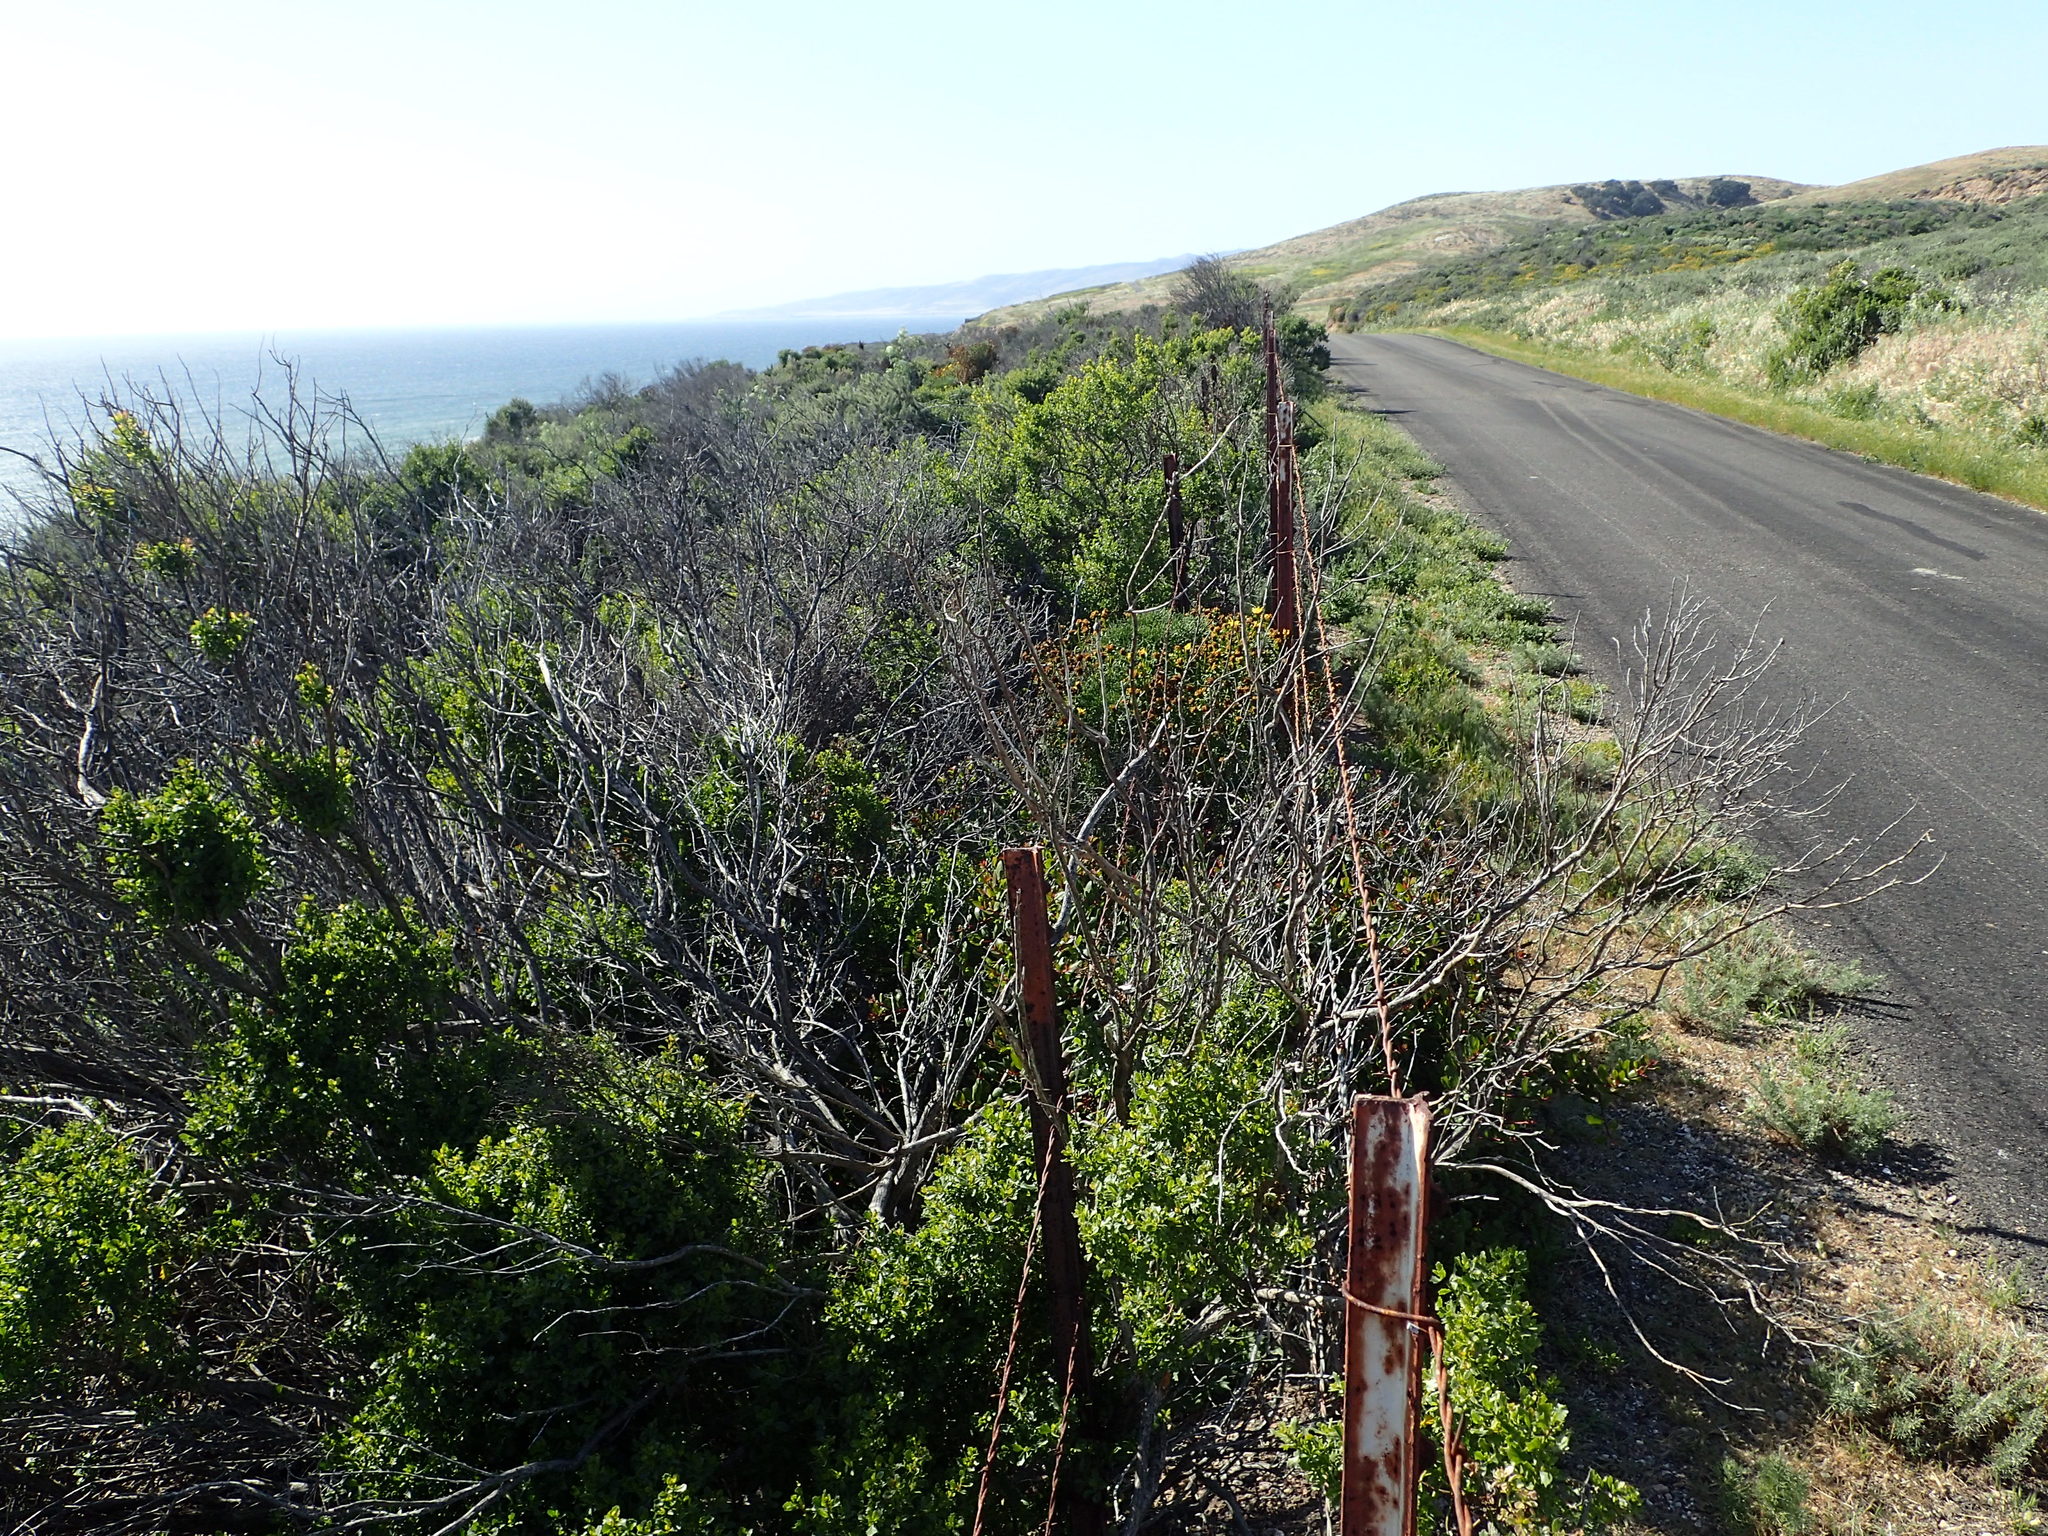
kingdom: Plantae
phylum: Tracheophyta
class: Magnoliopsida
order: Asterales
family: Asteraceae
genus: Baccharis
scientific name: Baccharis pilularis
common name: Coyotebrush
